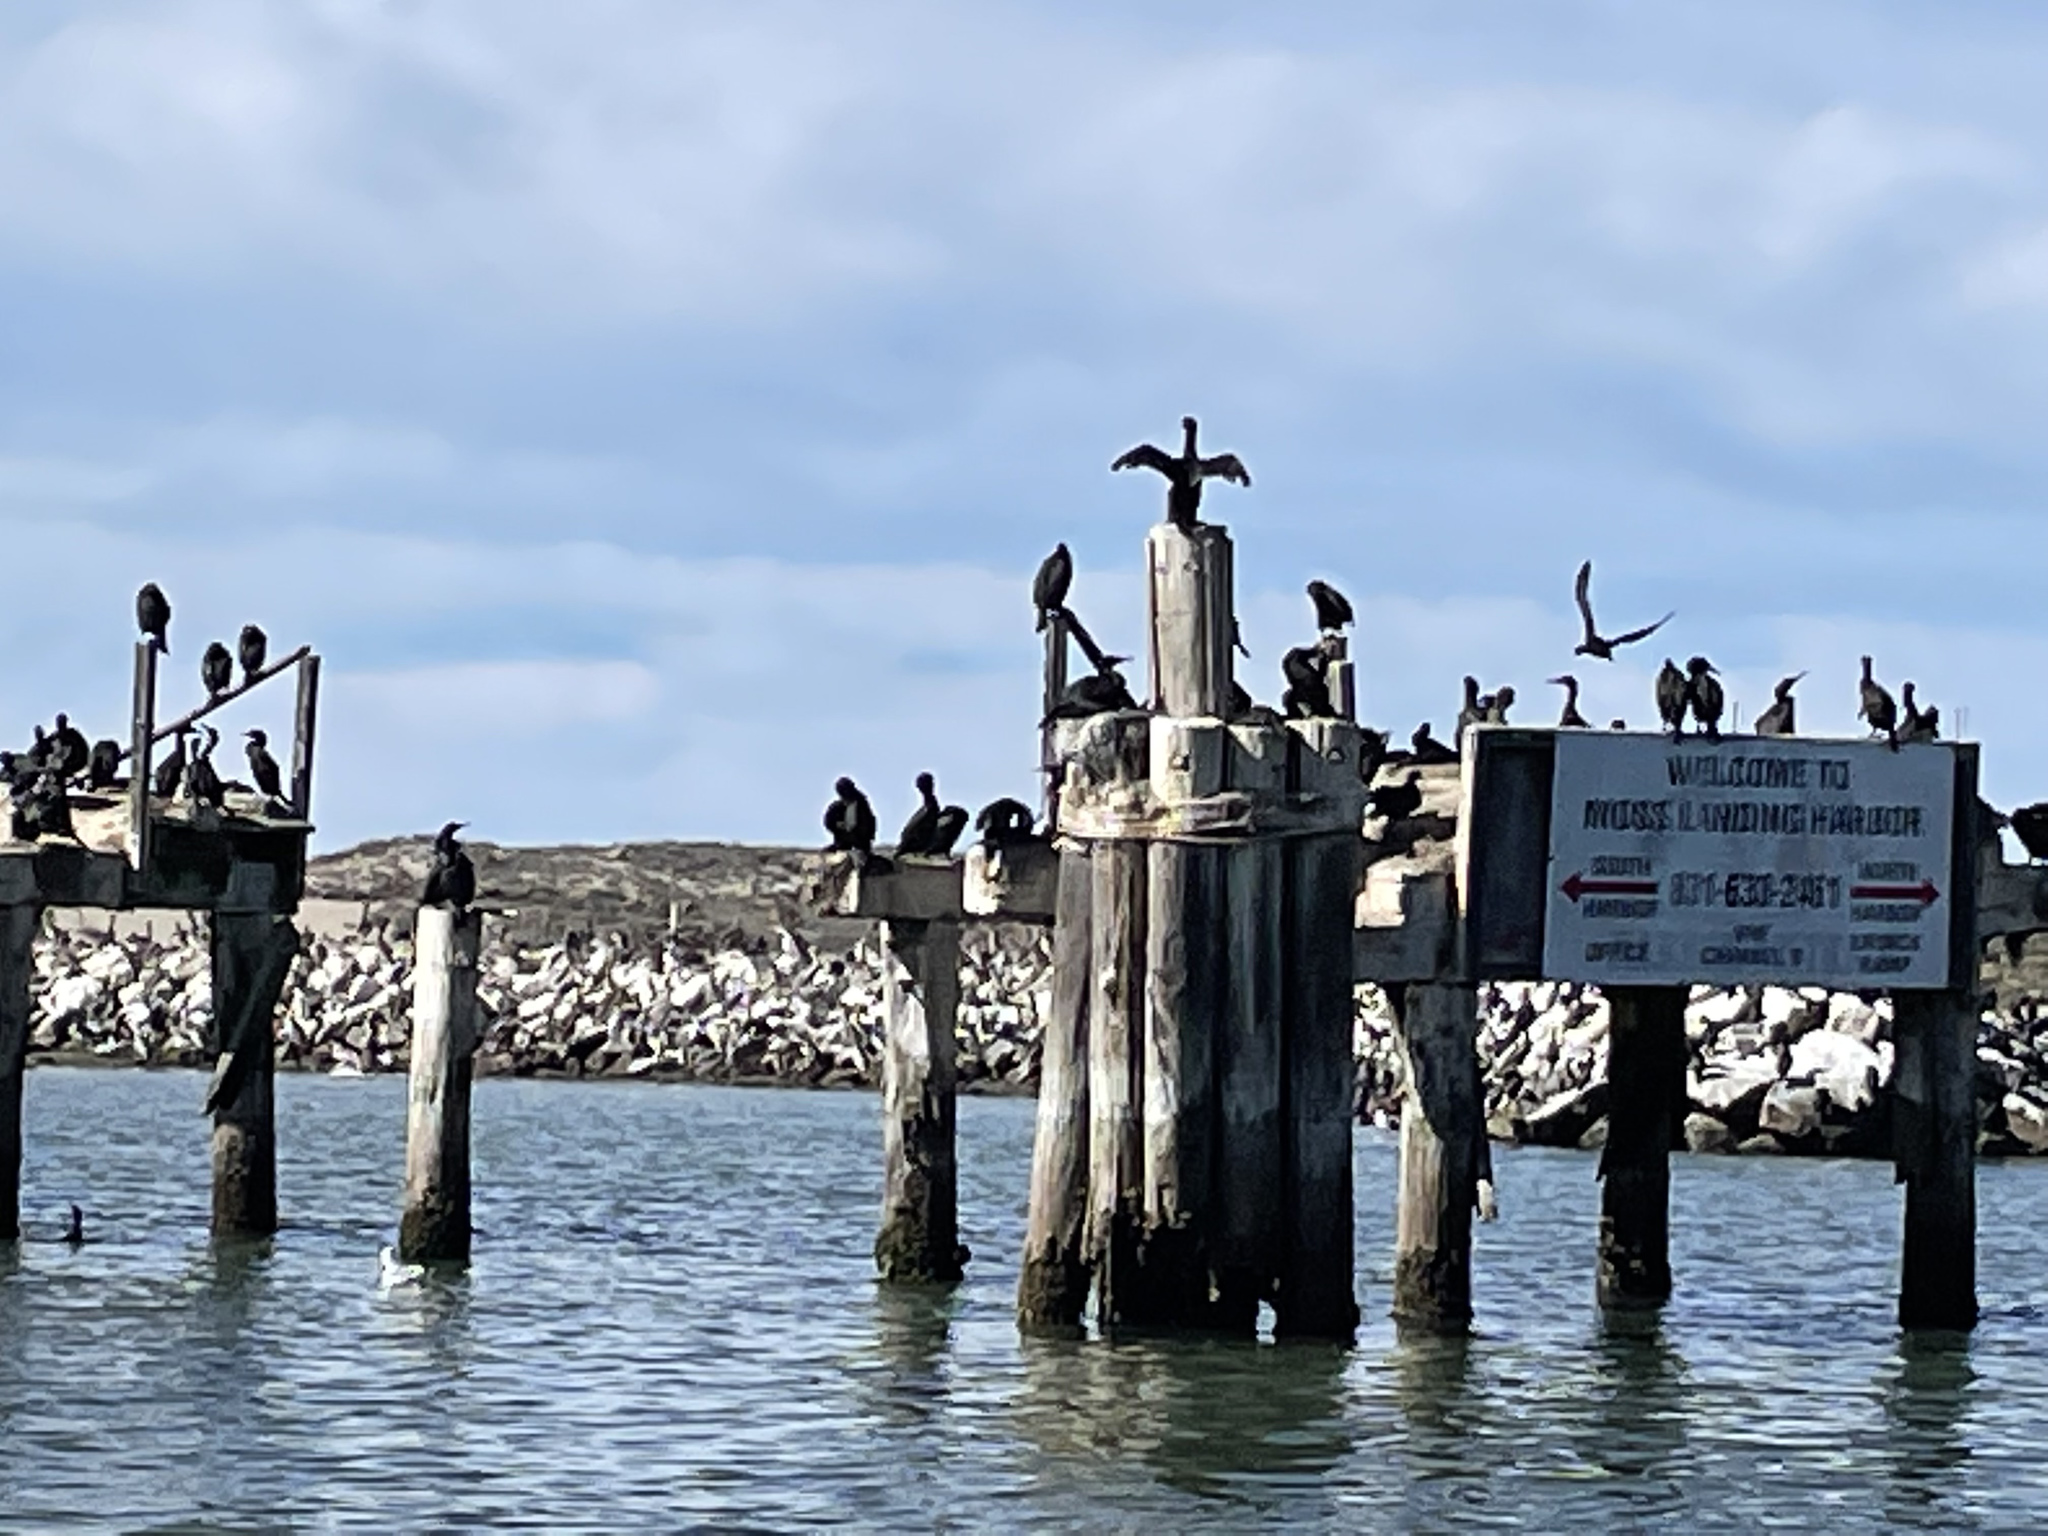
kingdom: Animalia
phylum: Chordata
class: Aves
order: Suliformes
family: Phalacrocoracidae
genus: Urile
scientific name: Urile penicillatus
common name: Brandt's cormorant
